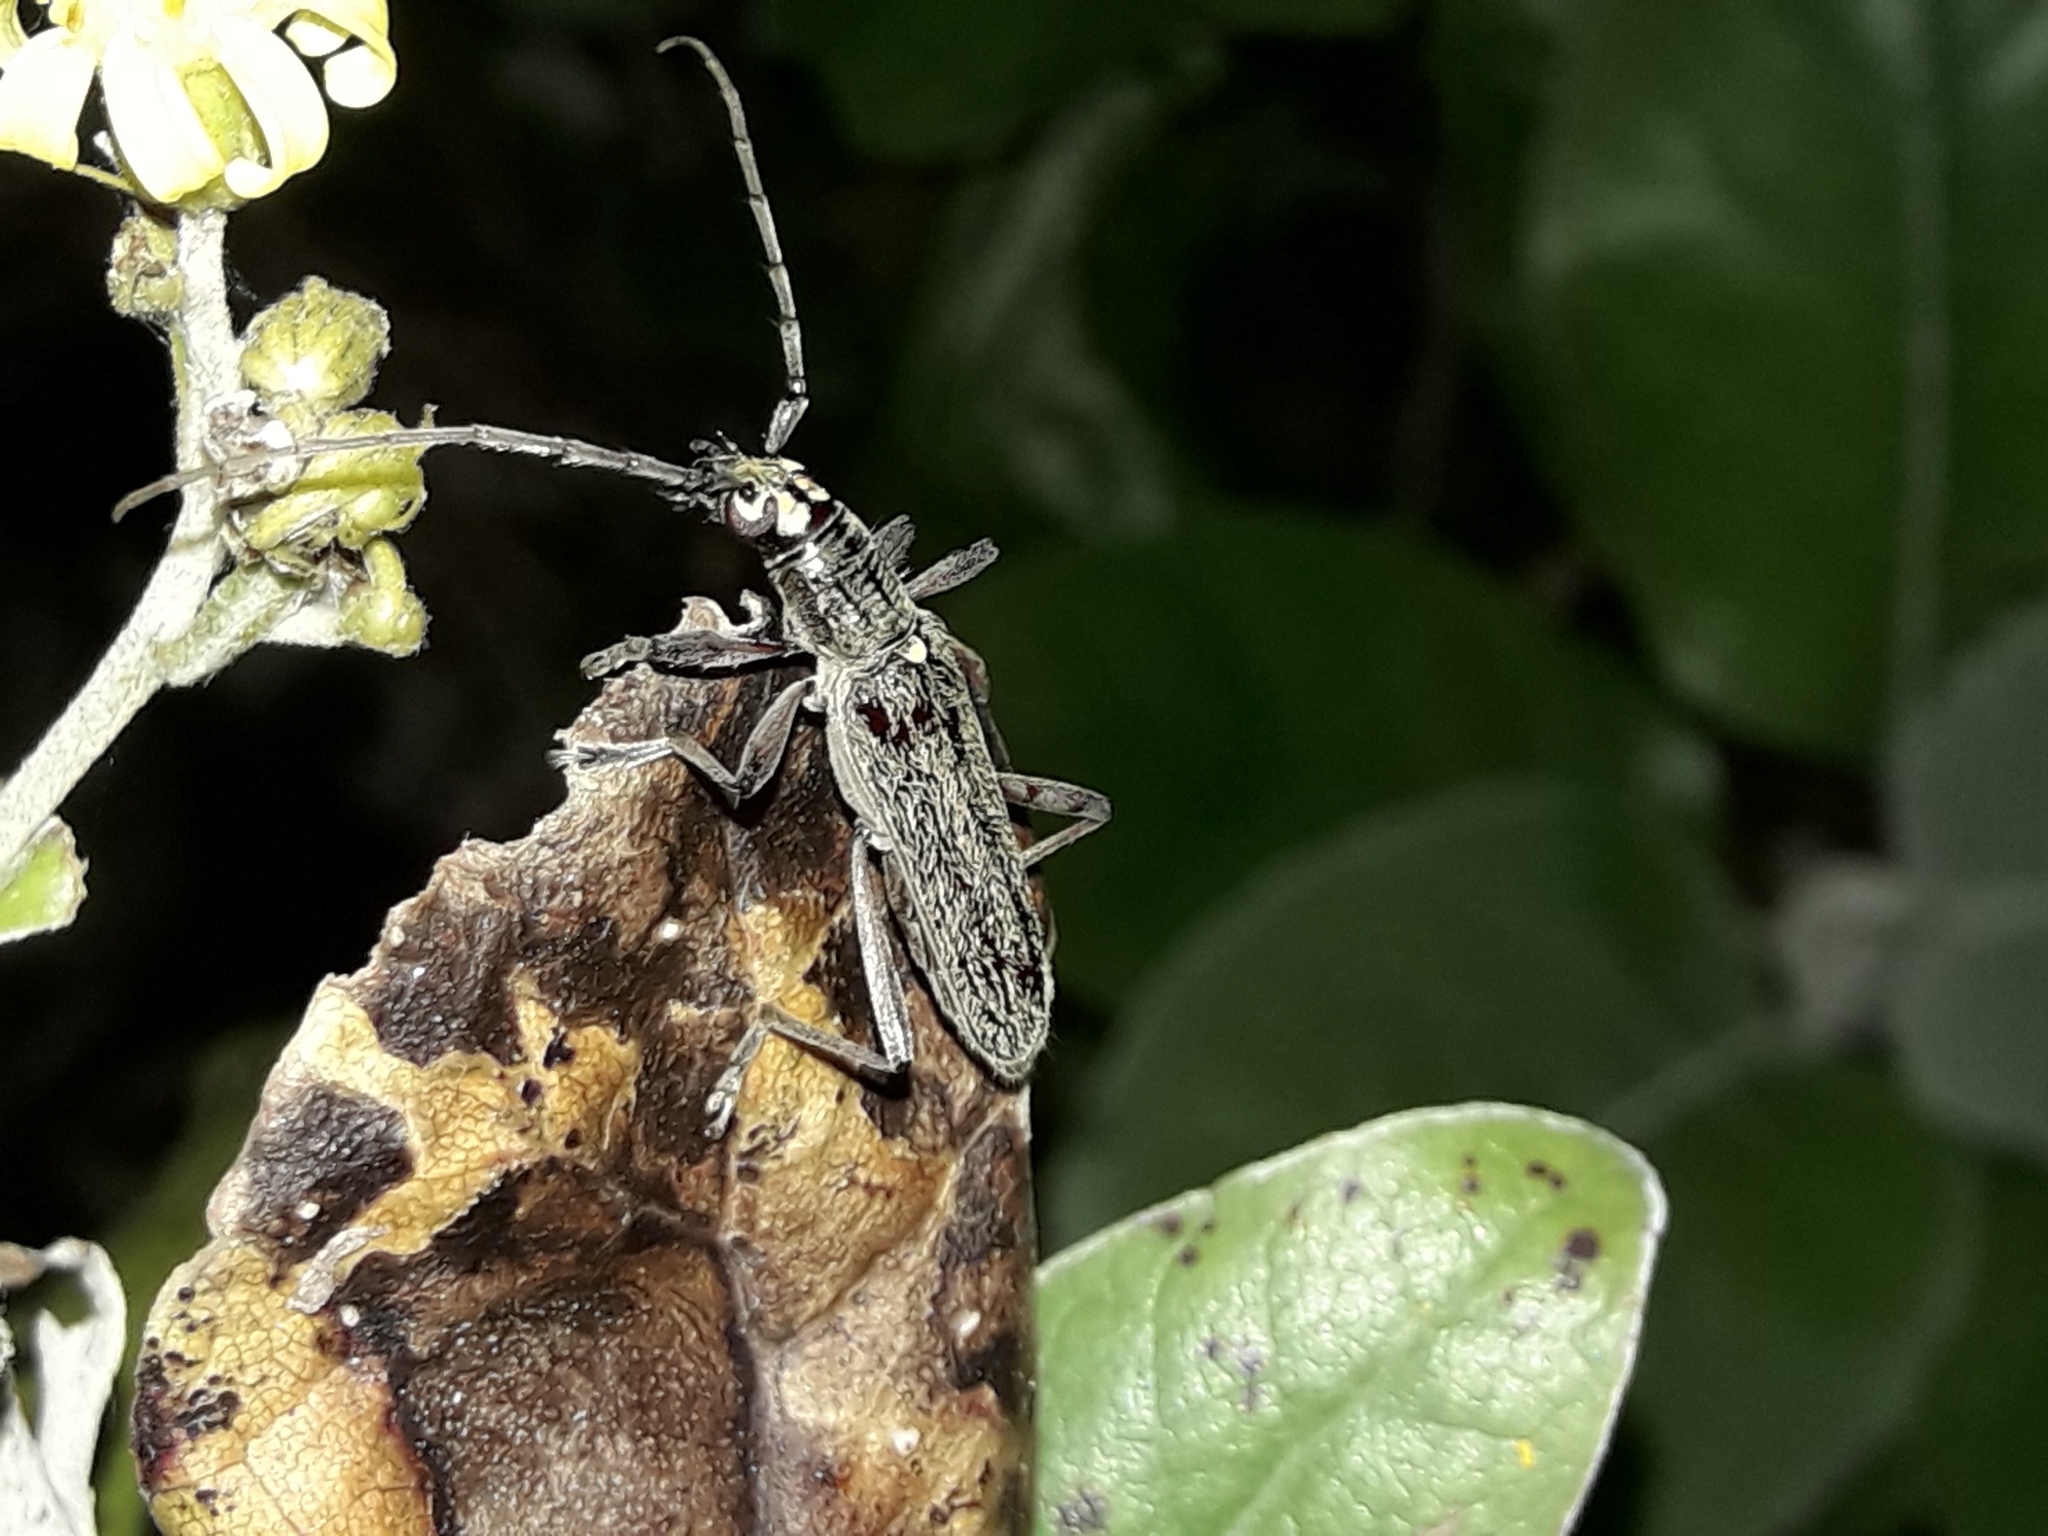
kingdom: Animalia
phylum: Arthropoda
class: Insecta
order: Coleoptera
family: Cerambycidae
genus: Oemona
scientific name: Oemona hirta
